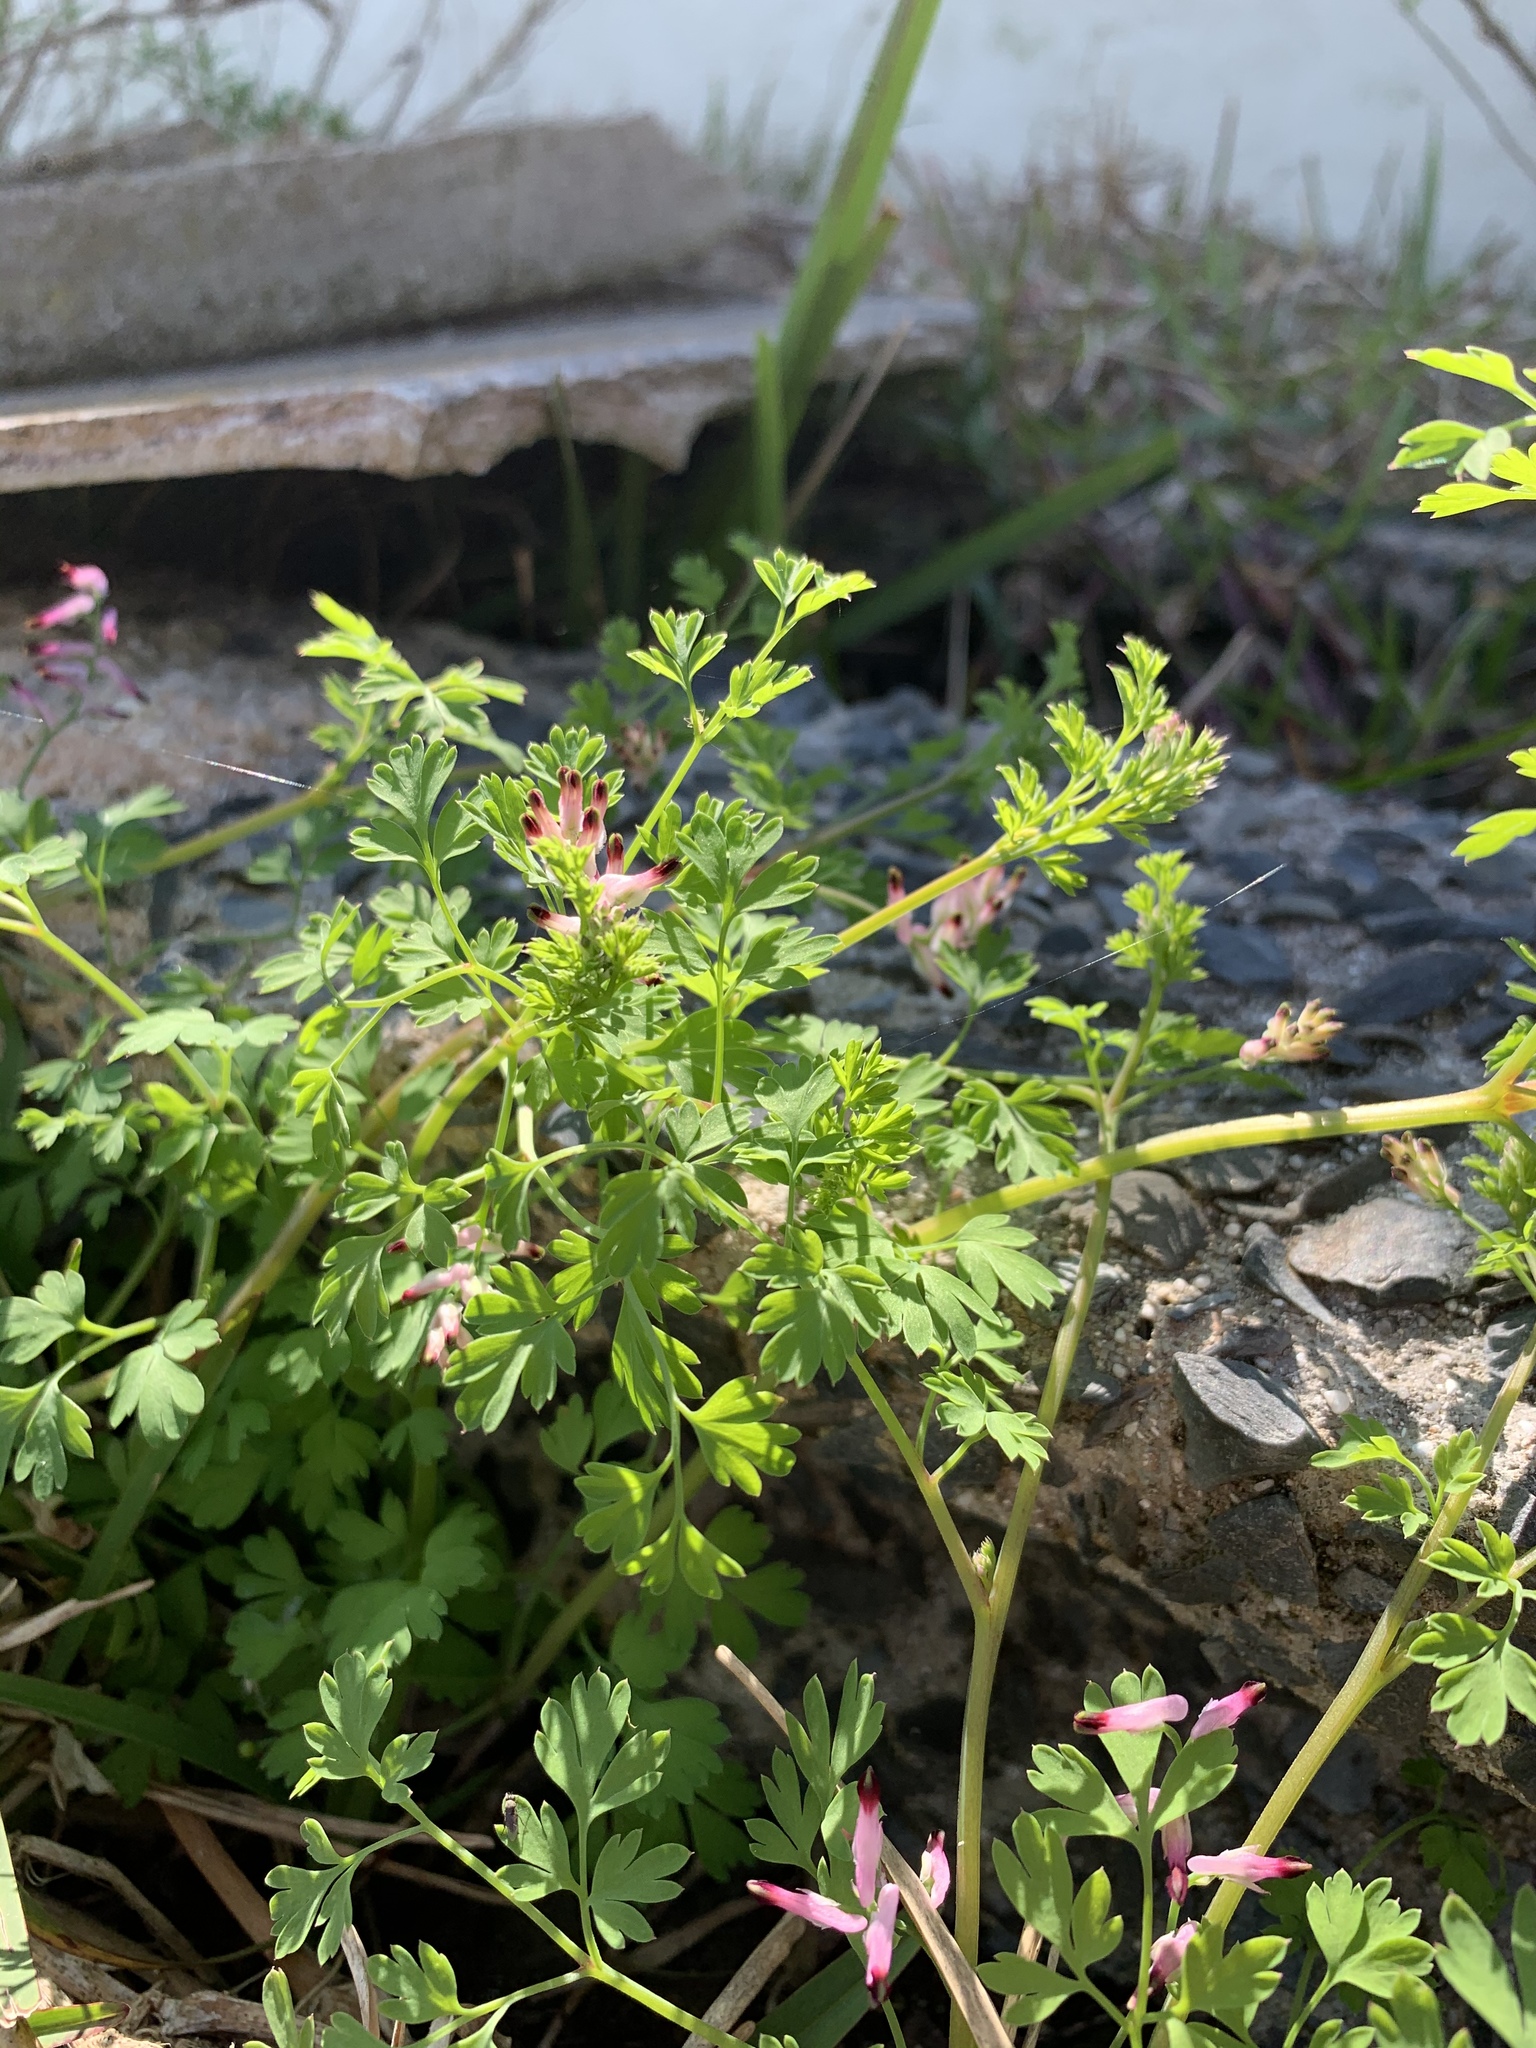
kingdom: Plantae
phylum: Tracheophyta
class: Magnoliopsida
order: Ranunculales
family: Papaveraceae
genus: Fumaria
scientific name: Fumaria muralis
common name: Common ramping-fumitory
